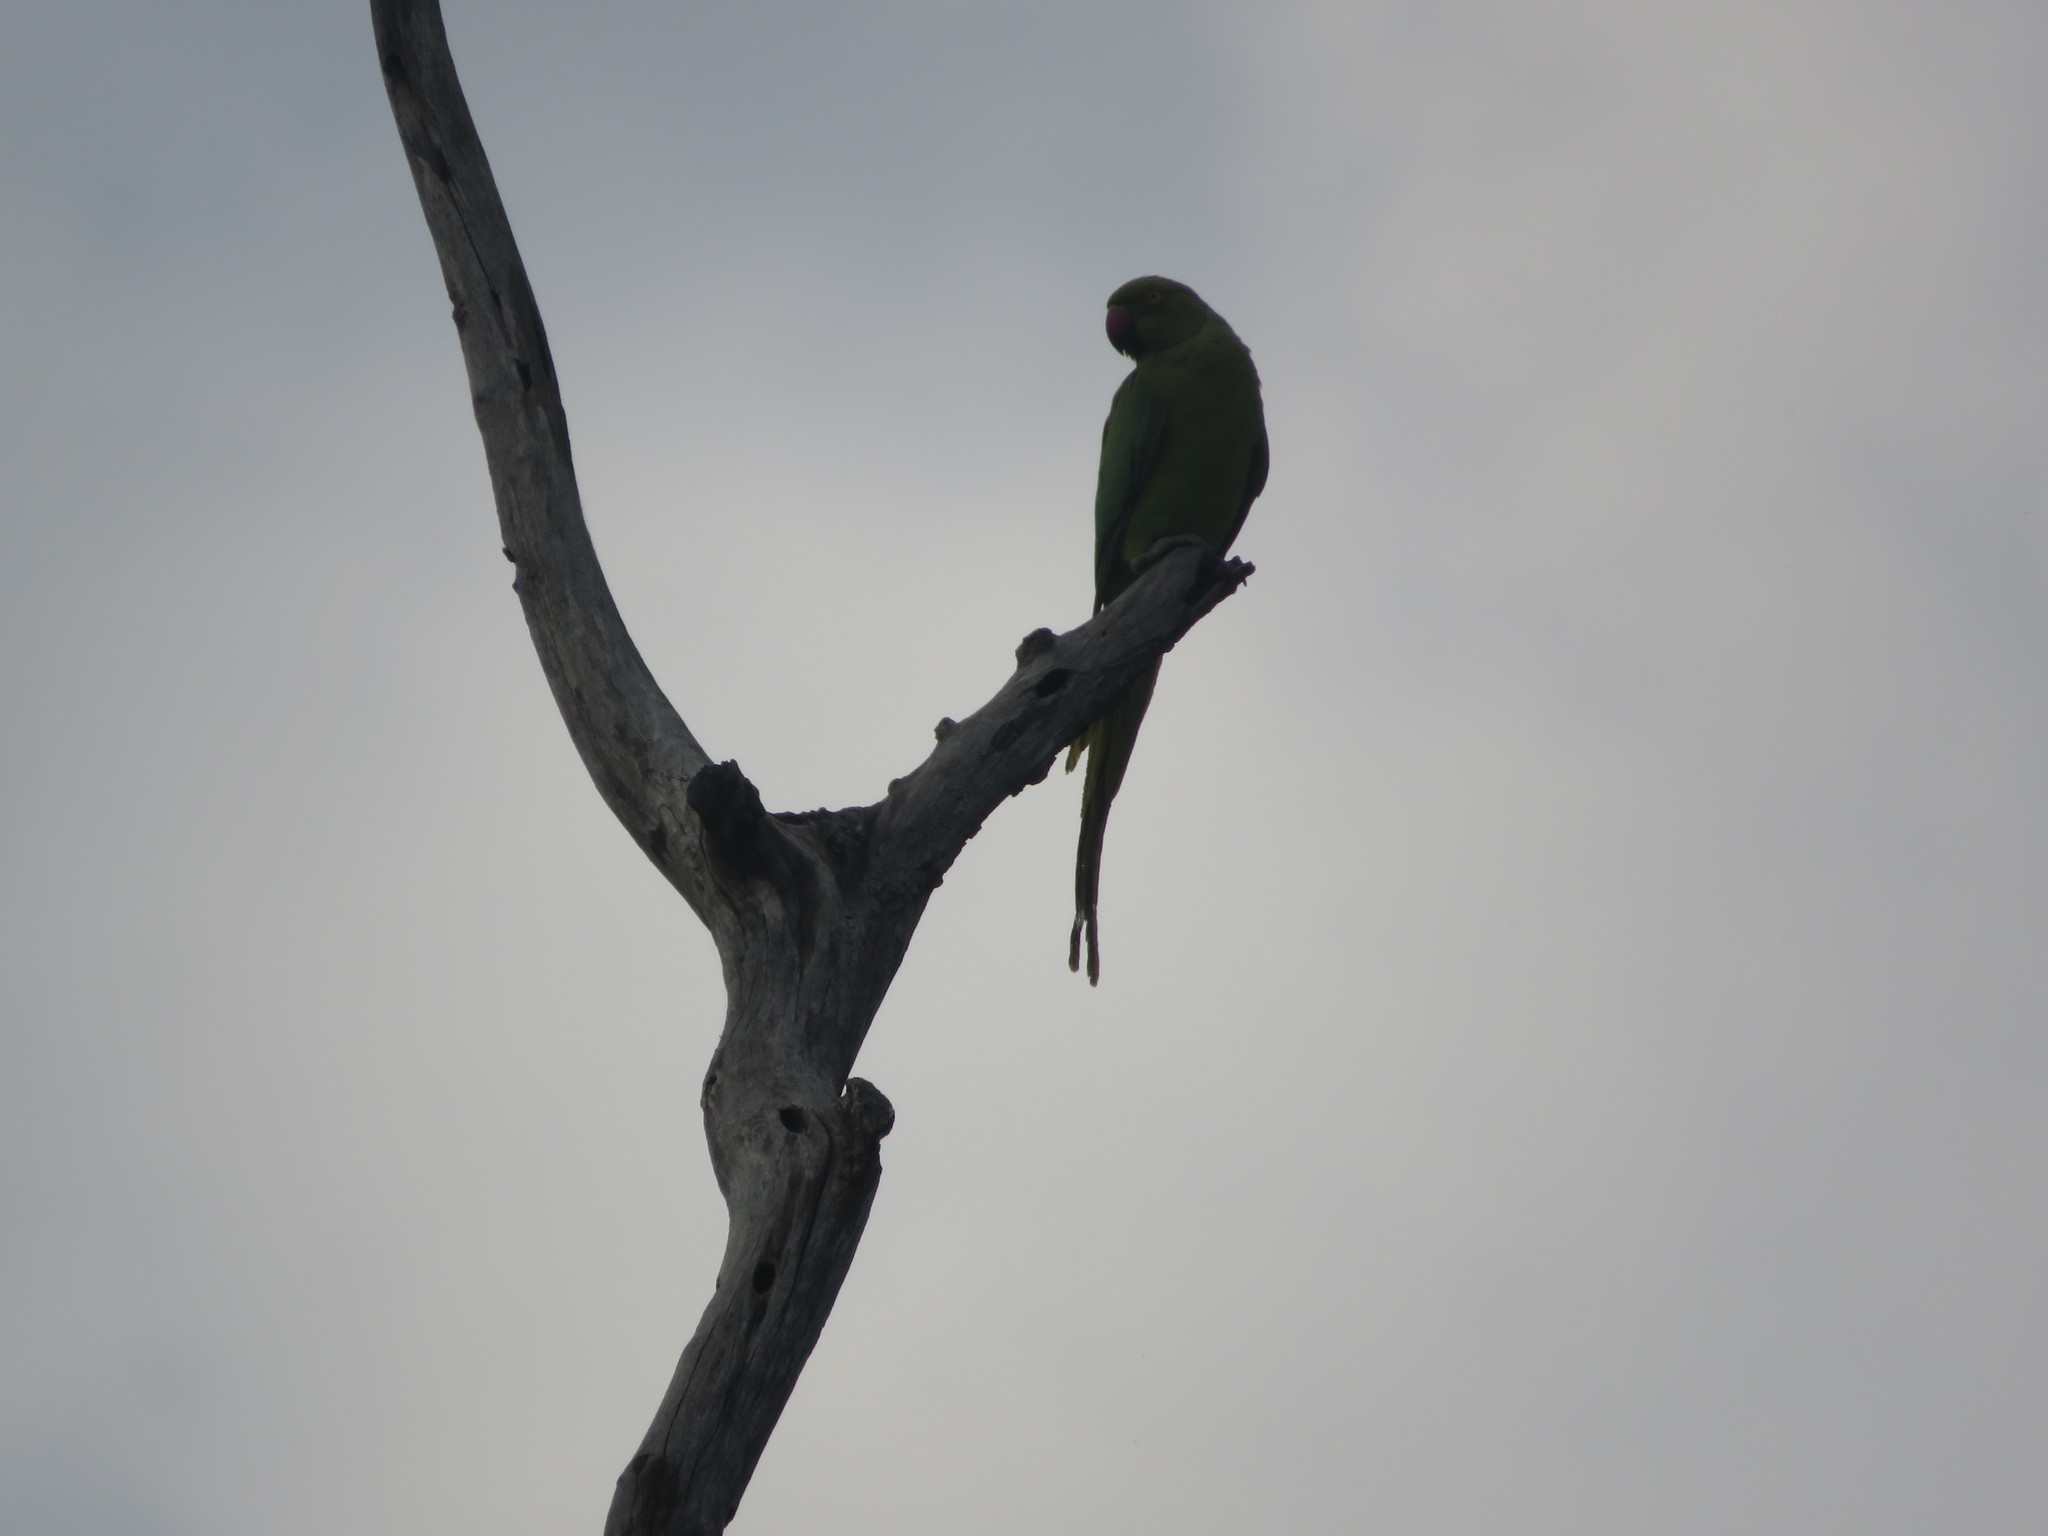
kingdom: Animalia
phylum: Chordata
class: Aves
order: Psittaciformes
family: Psittacidae
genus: Psittacula
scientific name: Psittacula krameri
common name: Rose-ringed parakeet
